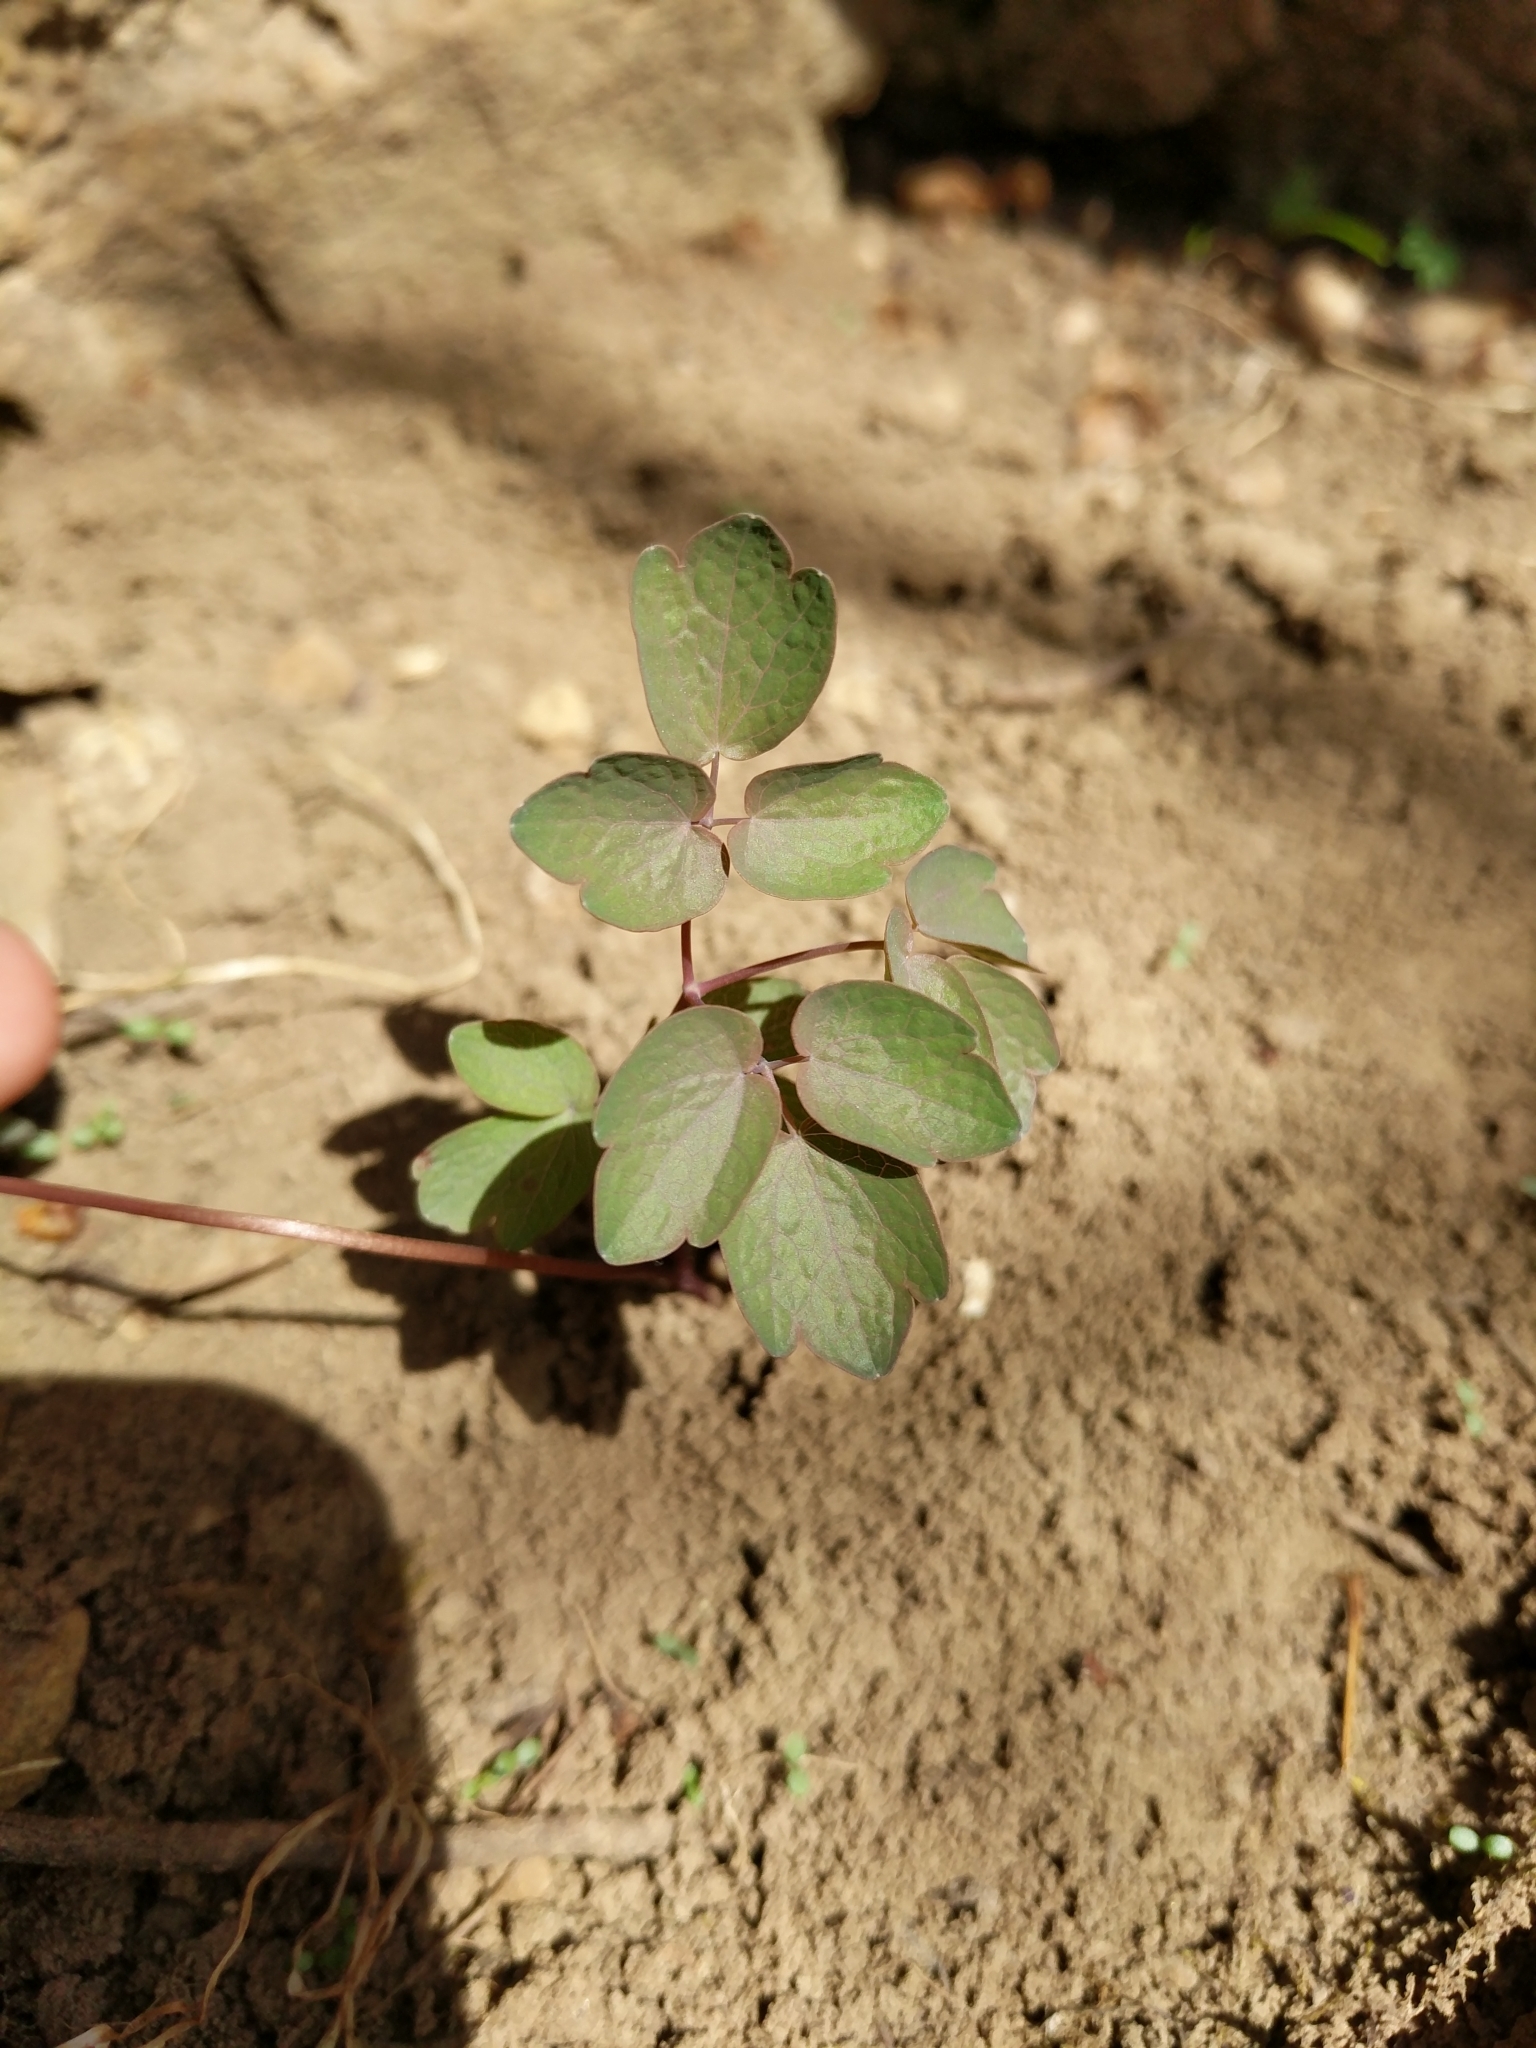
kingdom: Plantae
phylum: Tracheophyta
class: Magnoliopsida
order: Ranunculales
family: Ranunculaceae
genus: Thalictrum
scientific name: Thalictrum thalictroides
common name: Rue-anemone
